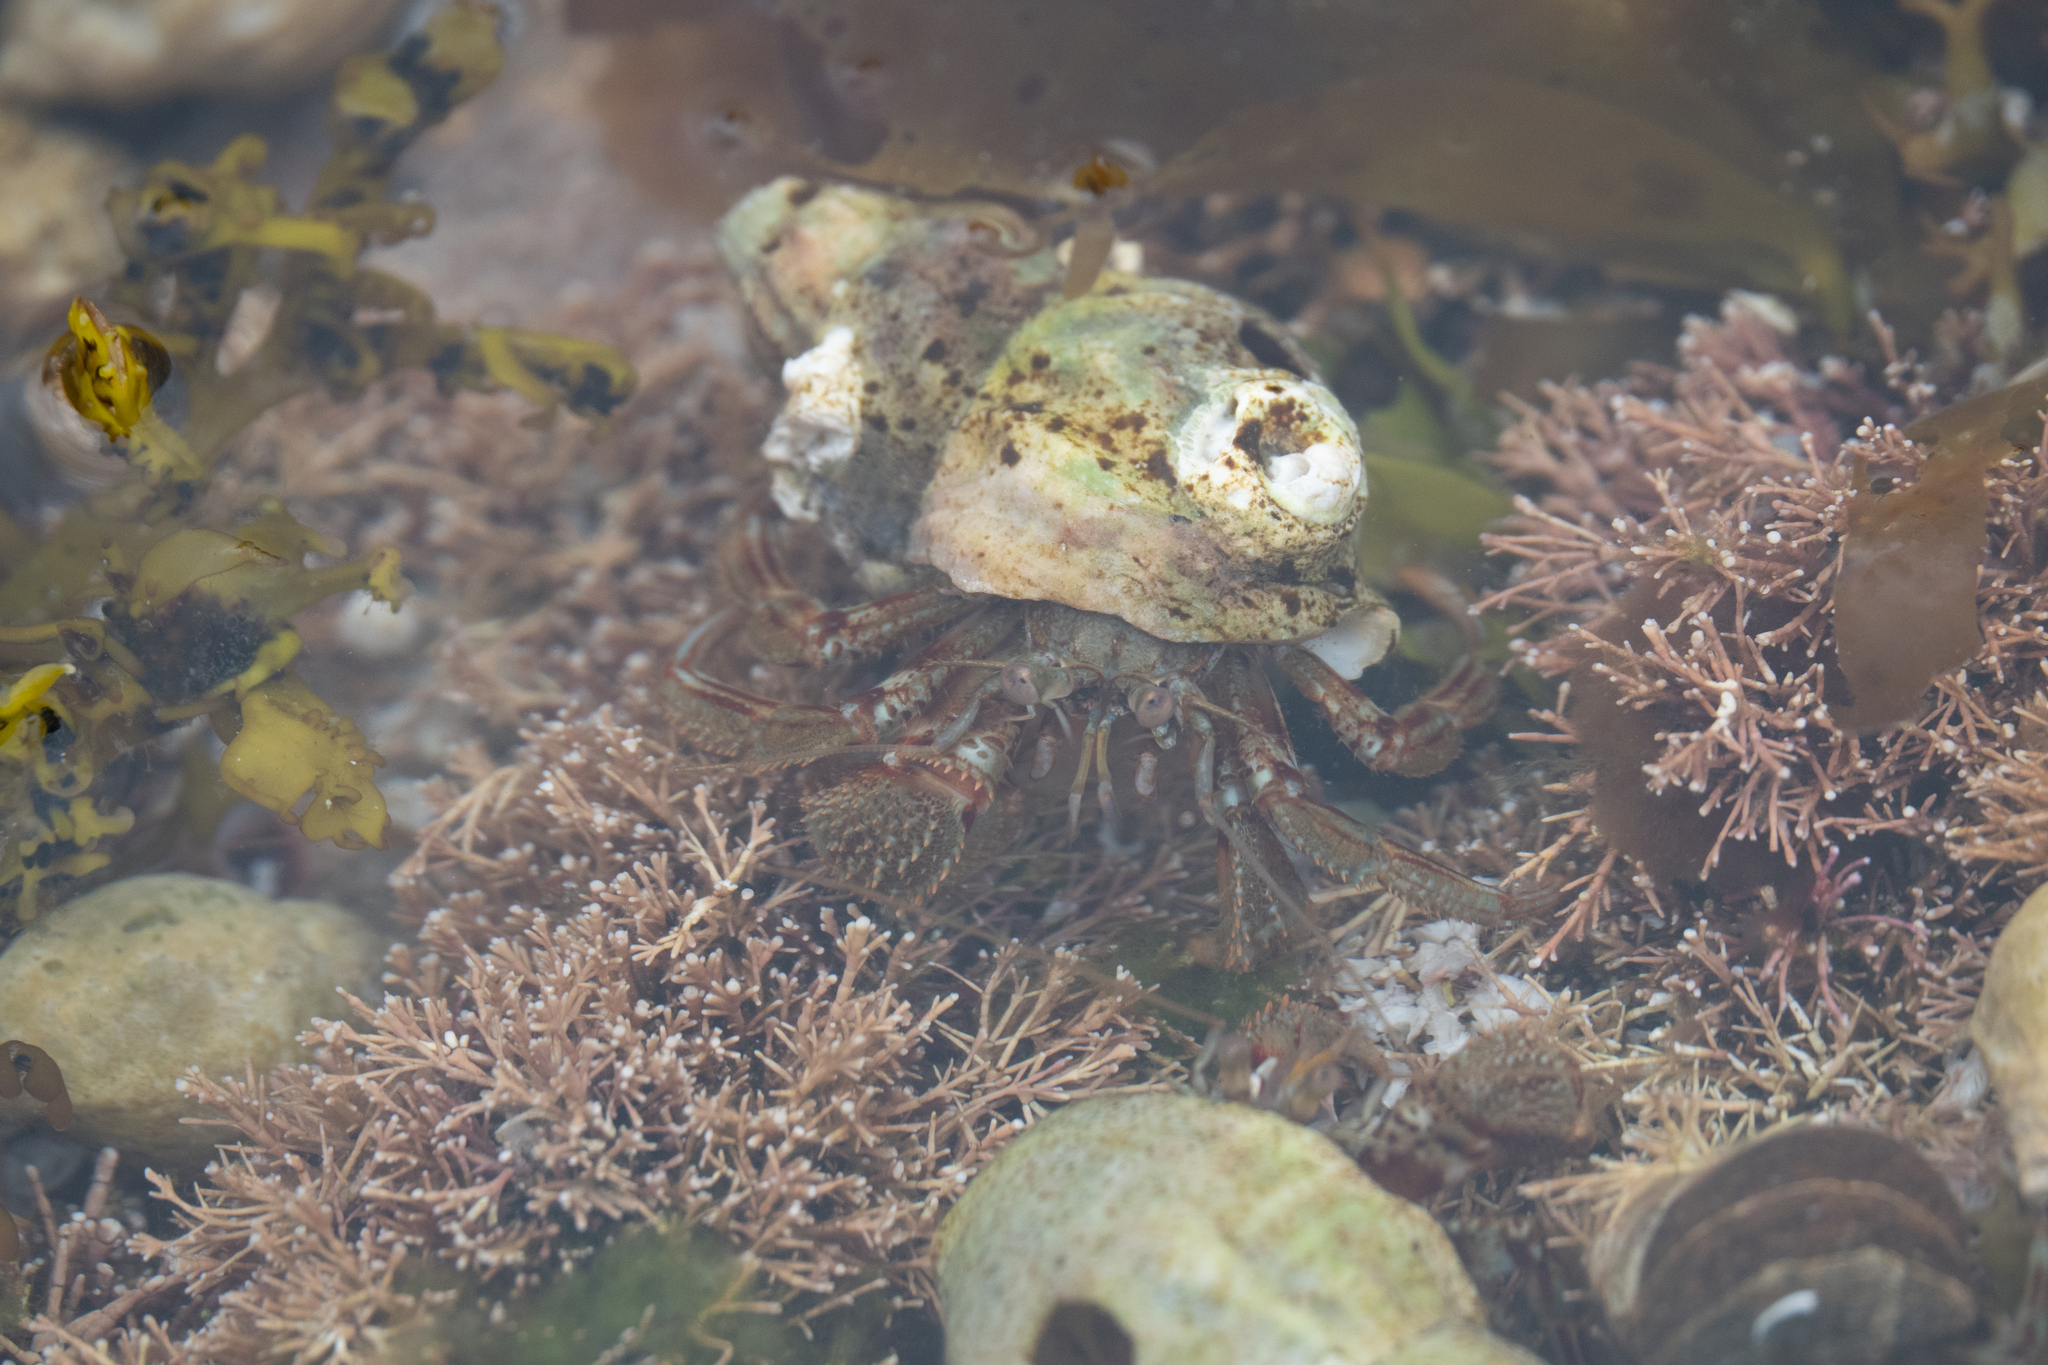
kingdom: Animalia
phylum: Arthropoda
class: Malacostraca
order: Decapoda
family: Paguridae
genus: Pagurus
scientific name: Pagurus bernhardus
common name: Hermit crab
